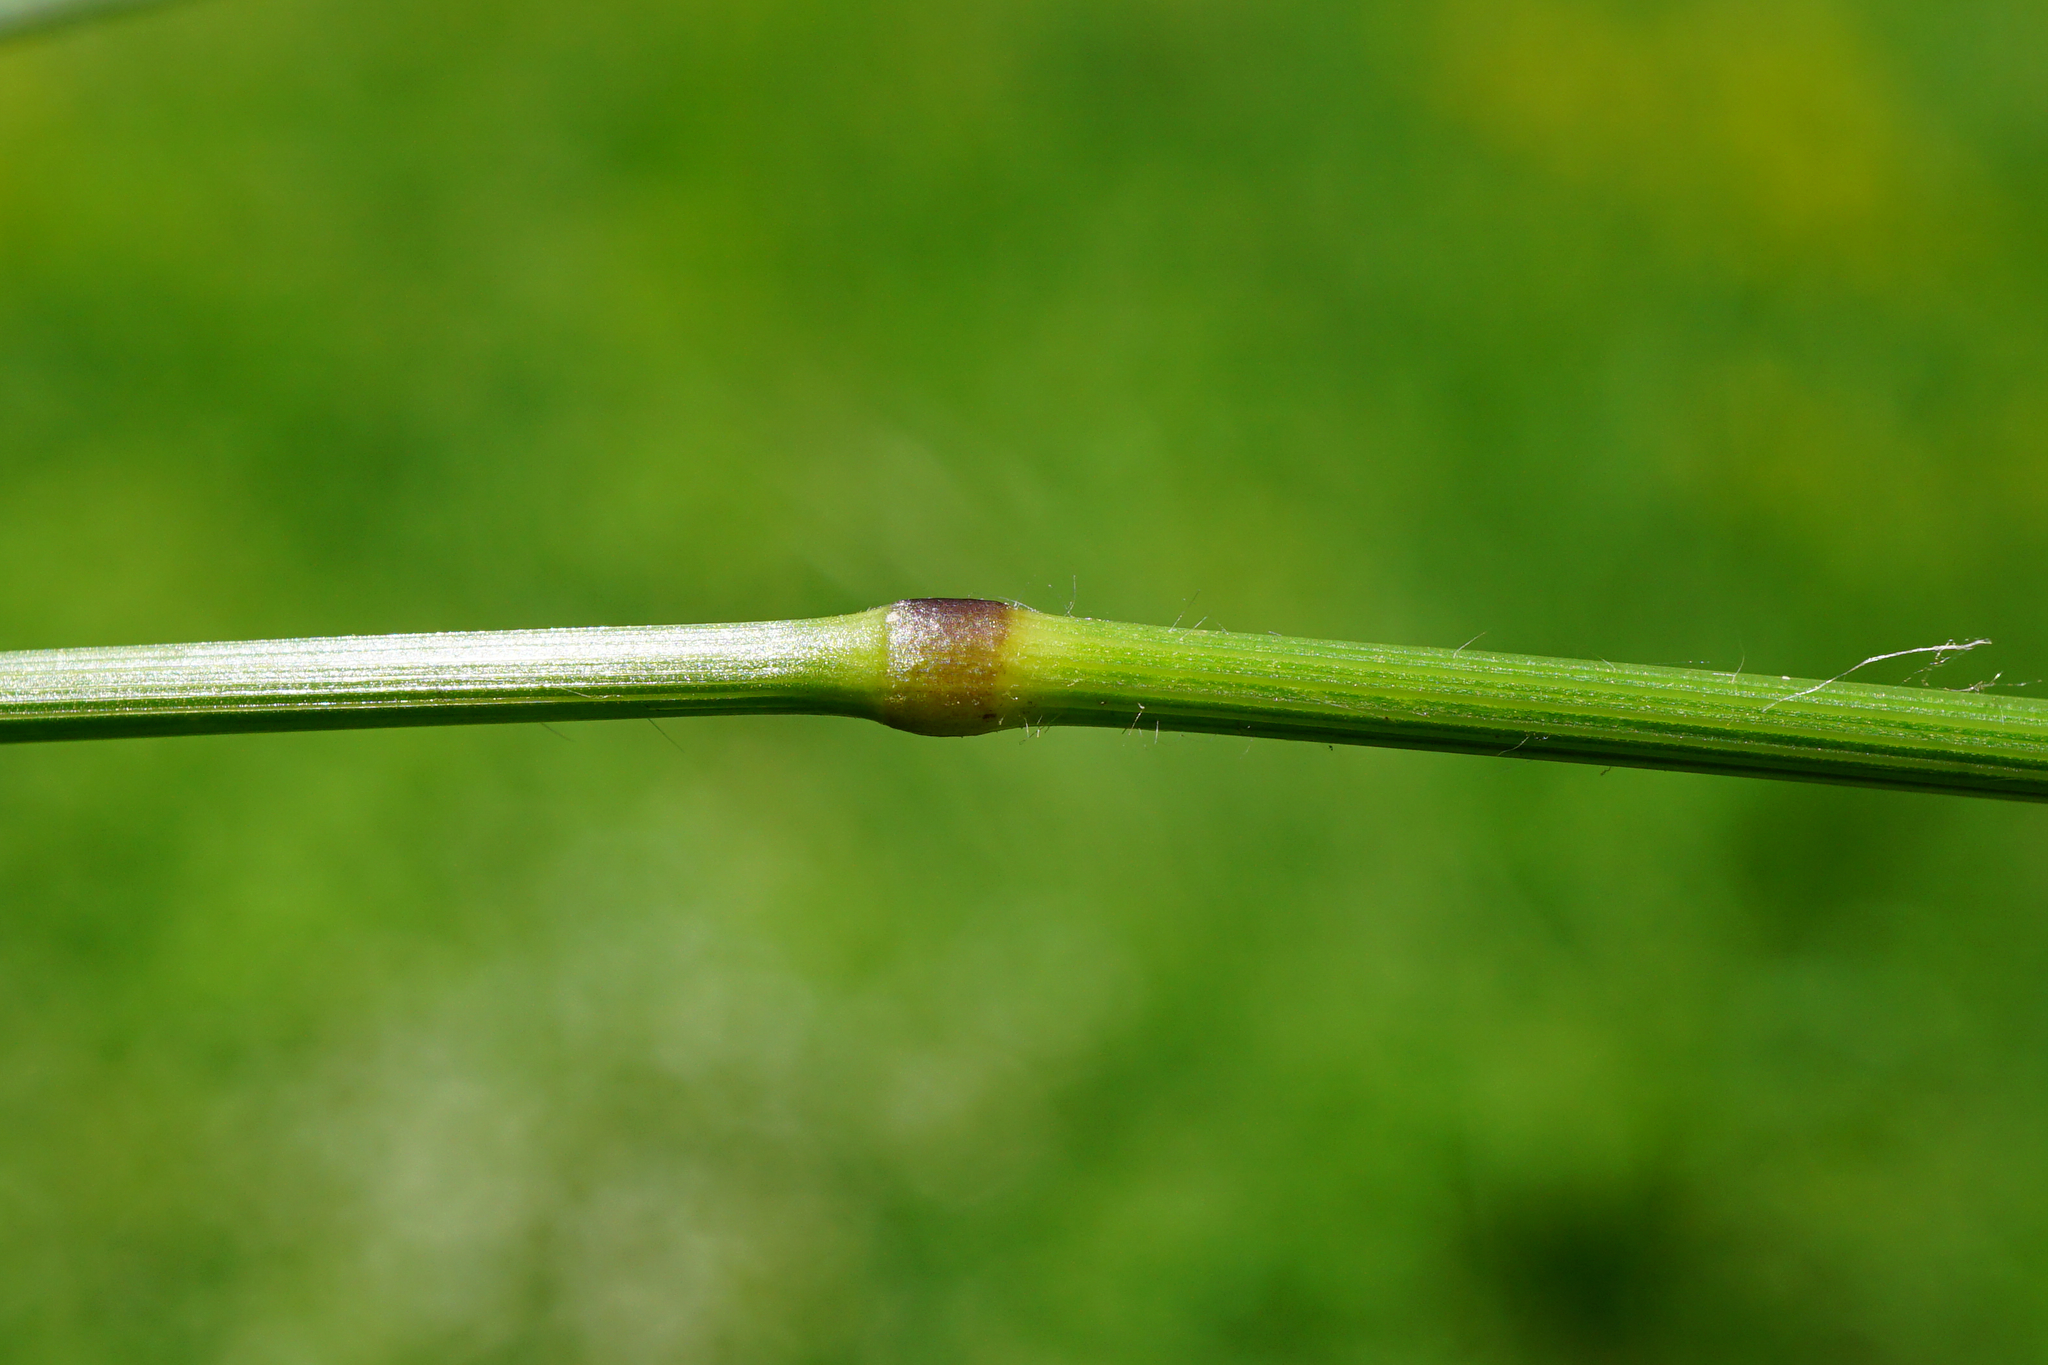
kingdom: Plantae
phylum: Tracheophyta
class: Liliopsida
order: Poales
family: Poaceae
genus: Bromus
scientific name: Bromus erectus
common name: Erect brome
